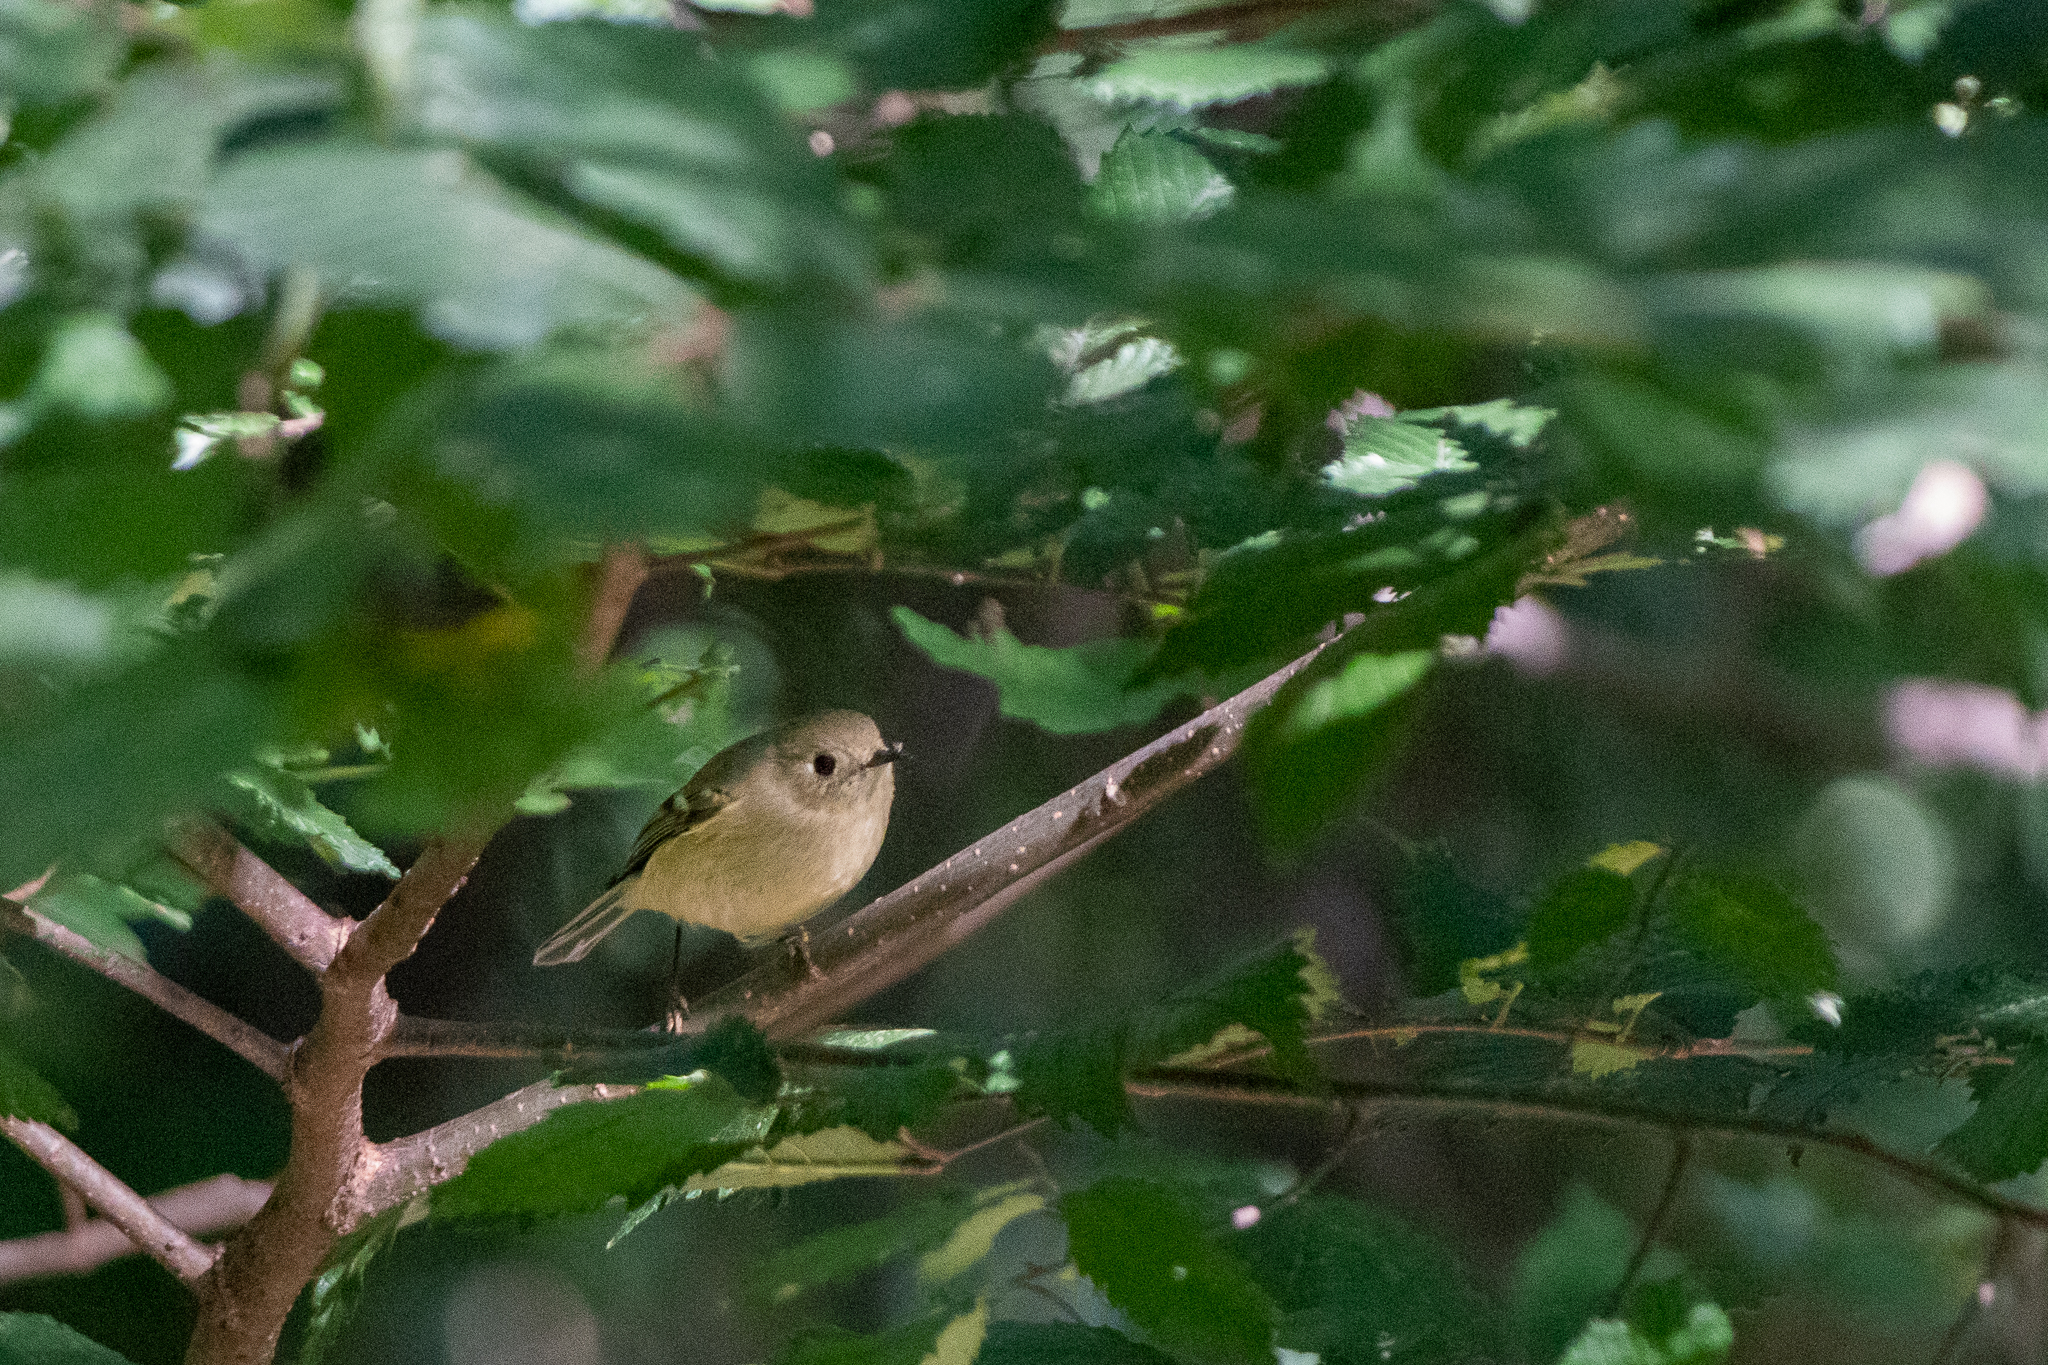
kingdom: Animalia
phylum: Chordata
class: Aves
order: Passeriformes
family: Regulidae
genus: Regulus
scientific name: Regulus calendula
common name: Ruby-crowned kinglet
